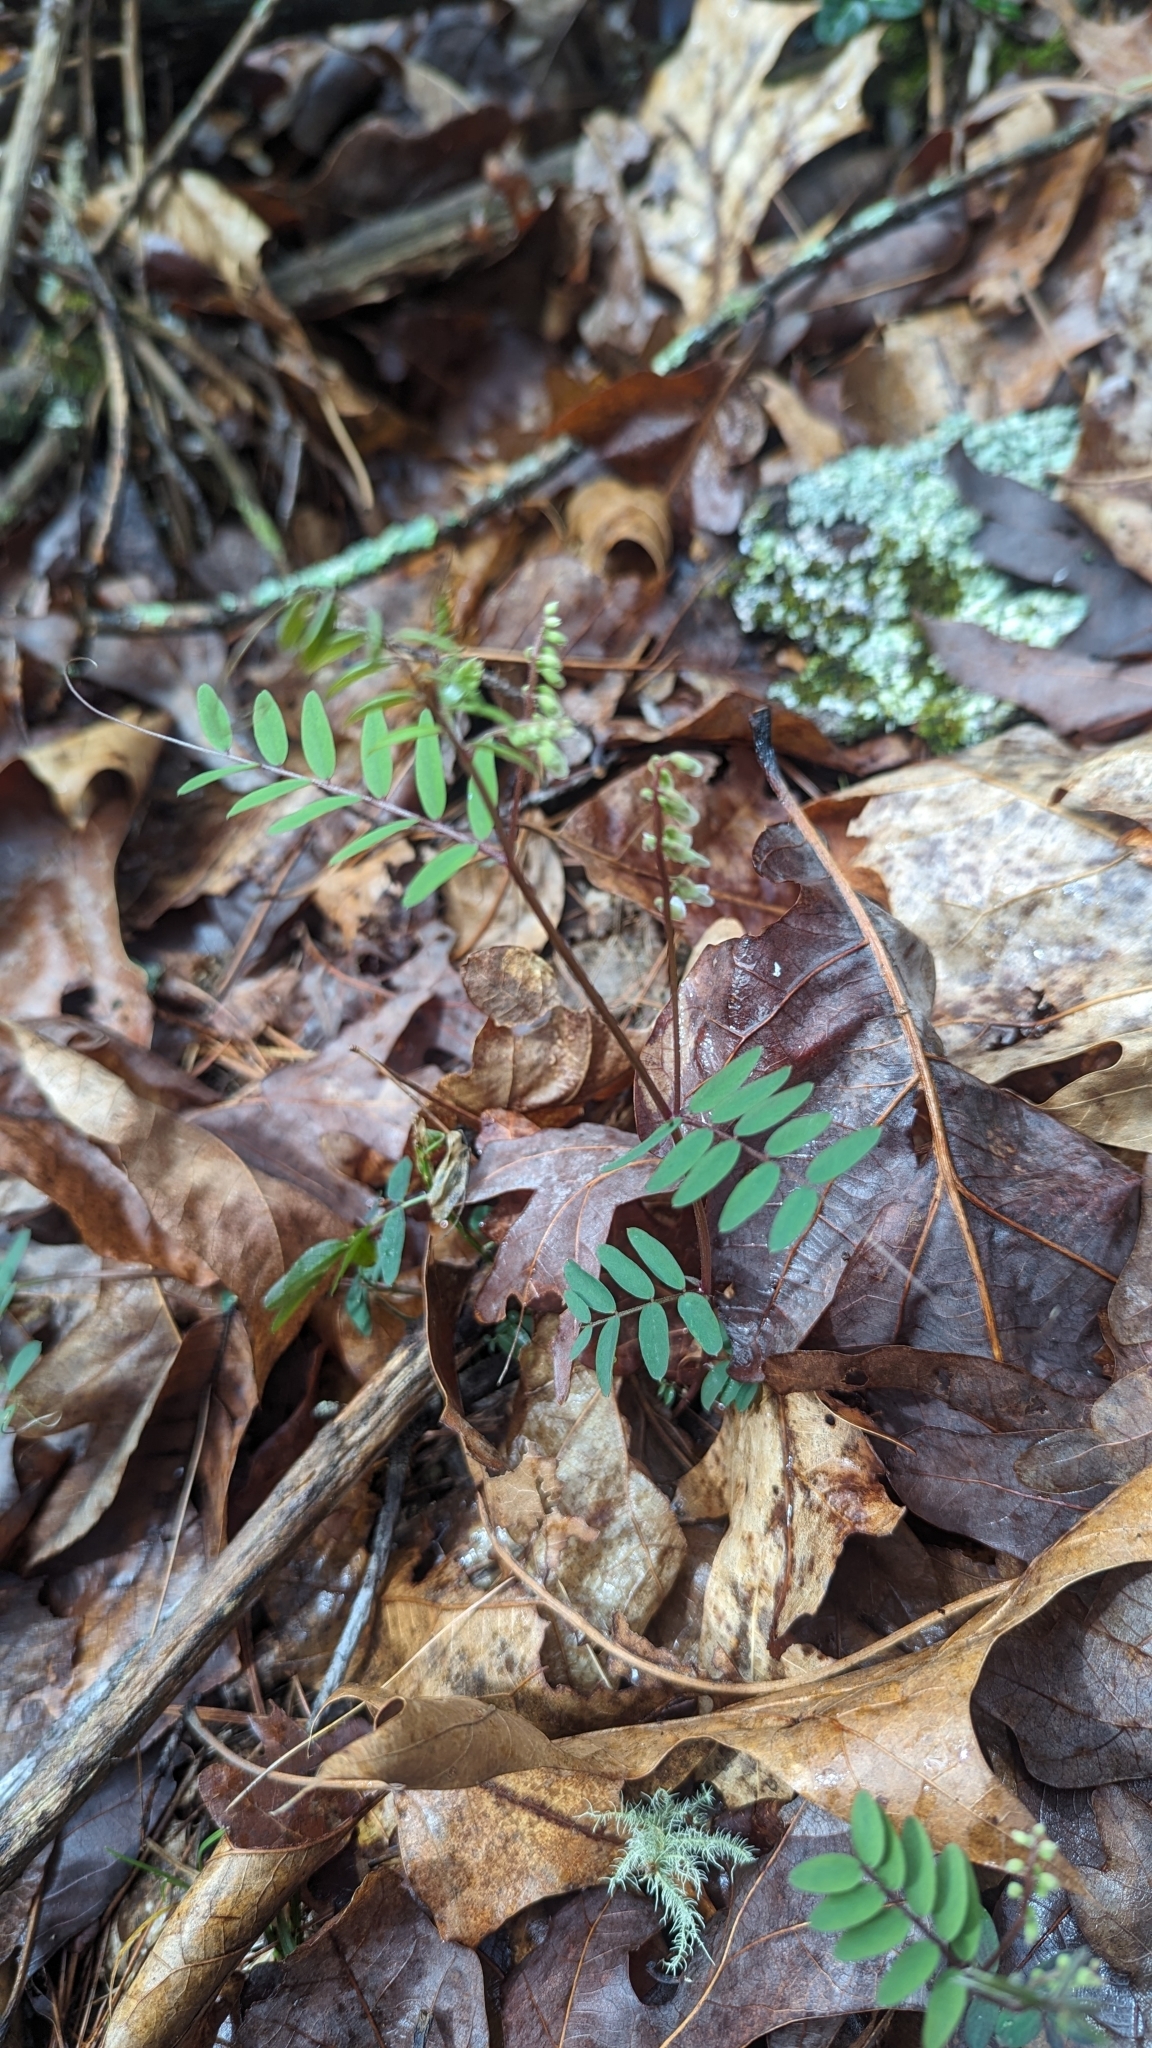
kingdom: Plantae
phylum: Tracheophyta
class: Magnoliopsida
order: Fabales
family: Fabaceae
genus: Vicia
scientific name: Vicia caroliniana
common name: Carolina vetch
